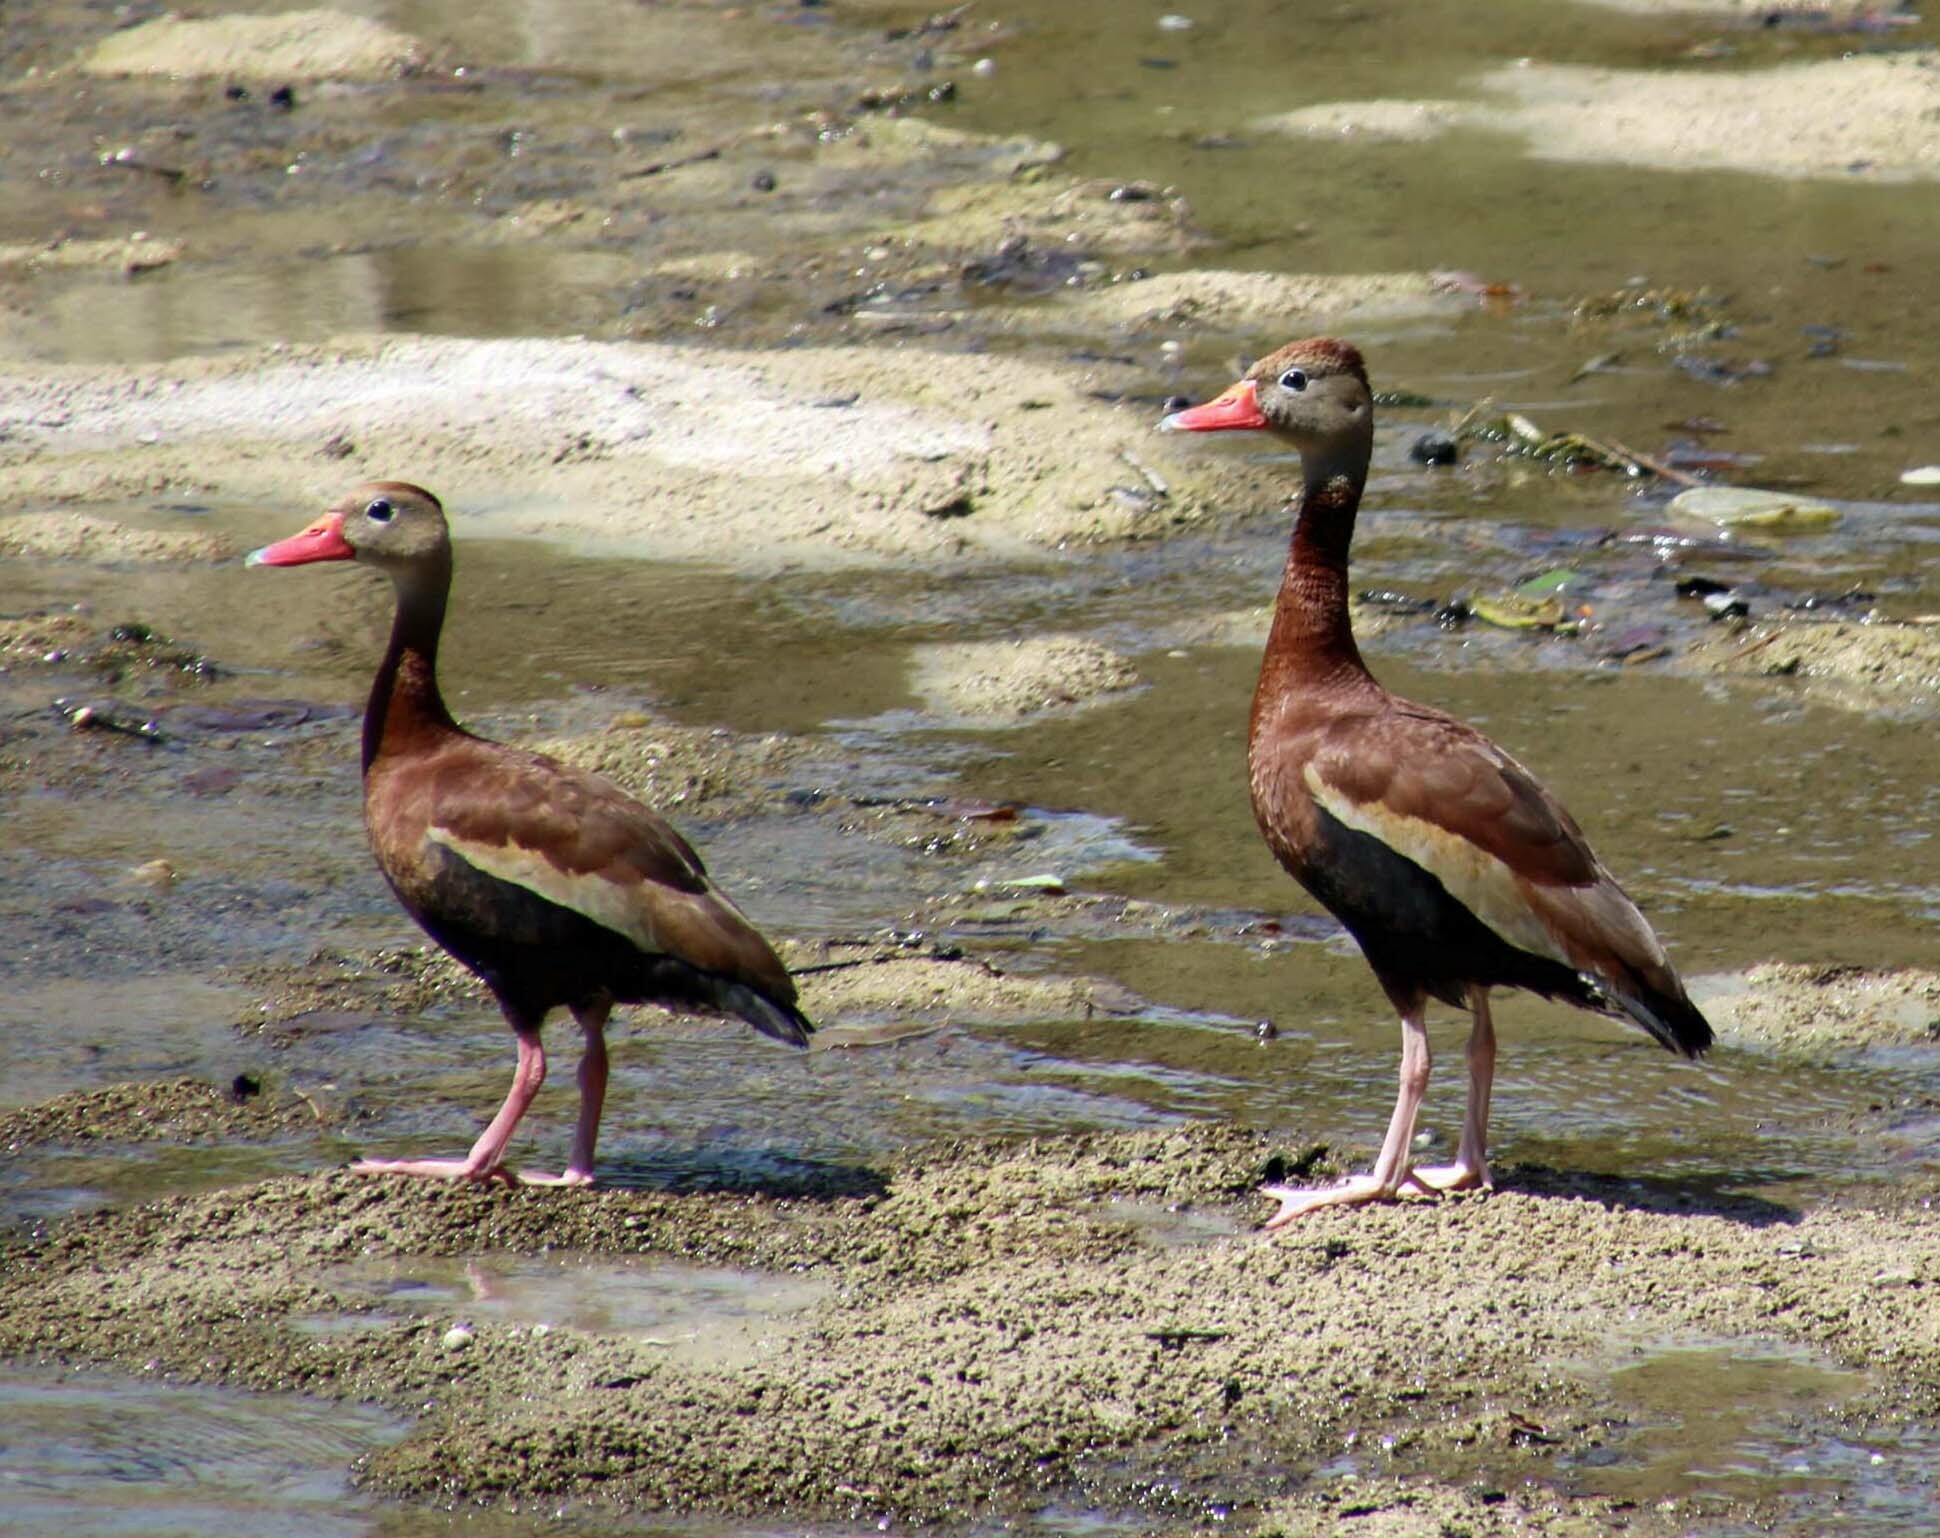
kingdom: Animalia
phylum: Chordata
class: Aves
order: Anseriformes
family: Anatidae
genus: Dendrocygna
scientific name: Dendrocygna autumnalis
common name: Black-bellied whistling duck
